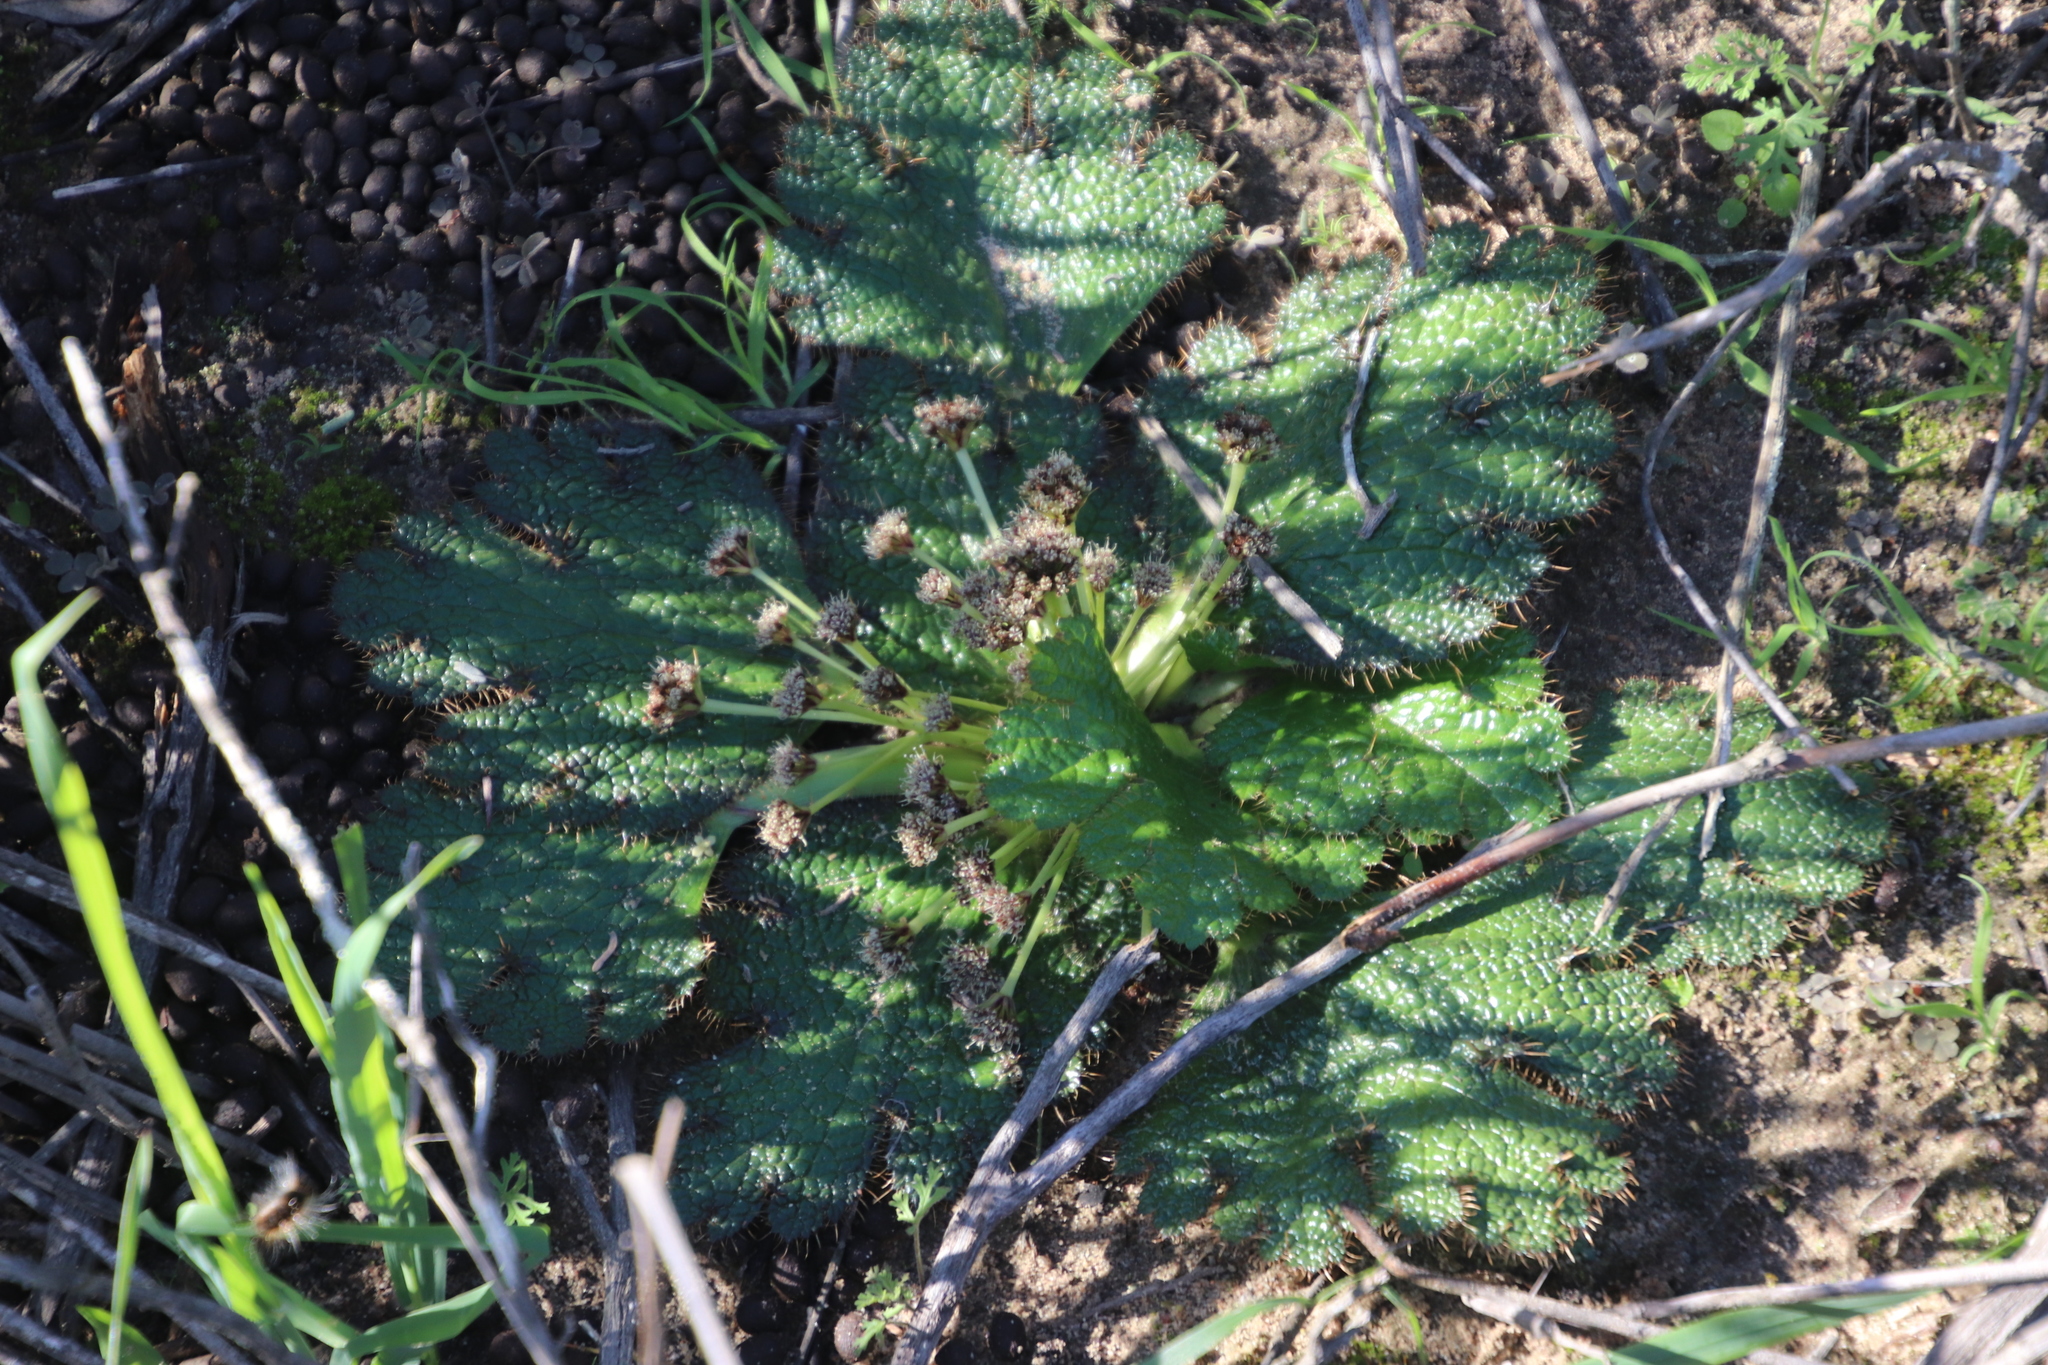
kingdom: Plantae
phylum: Tracheophyta
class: Magnoliopsida
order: Apiales
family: Apiaceae
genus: Arctopus
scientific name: Arctopus dregei
